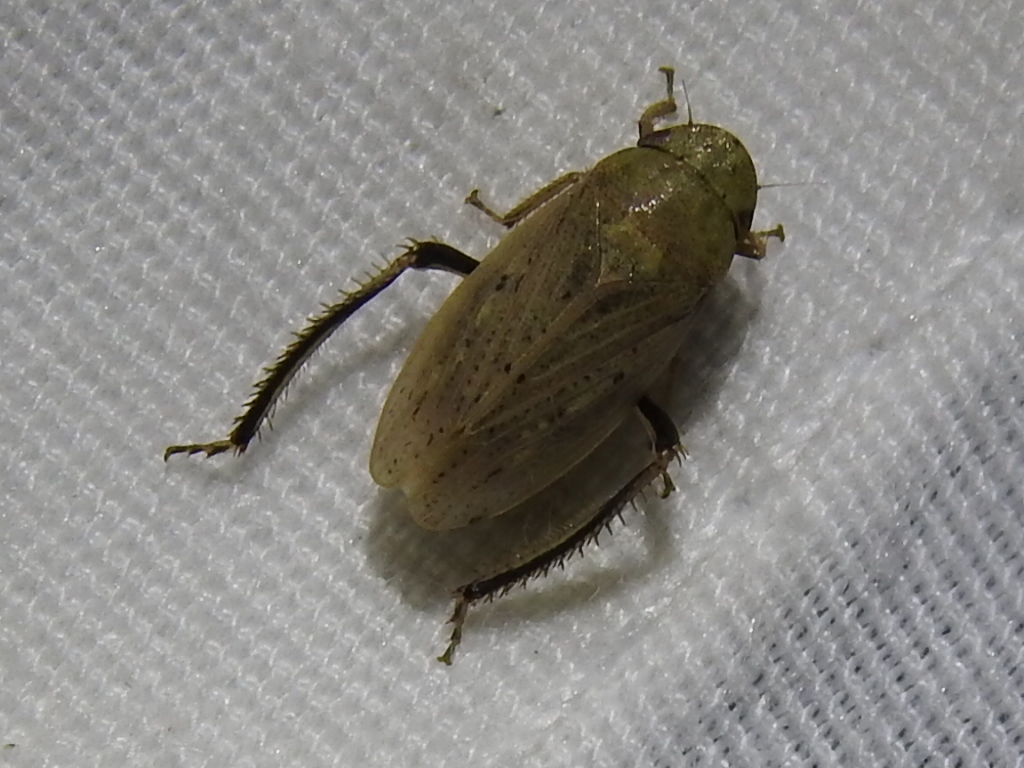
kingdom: Animalia
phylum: Arthropoda
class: Insecta
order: Hemiptera
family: Cicadellidae
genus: Negosiana
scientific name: Negosiana dualis
